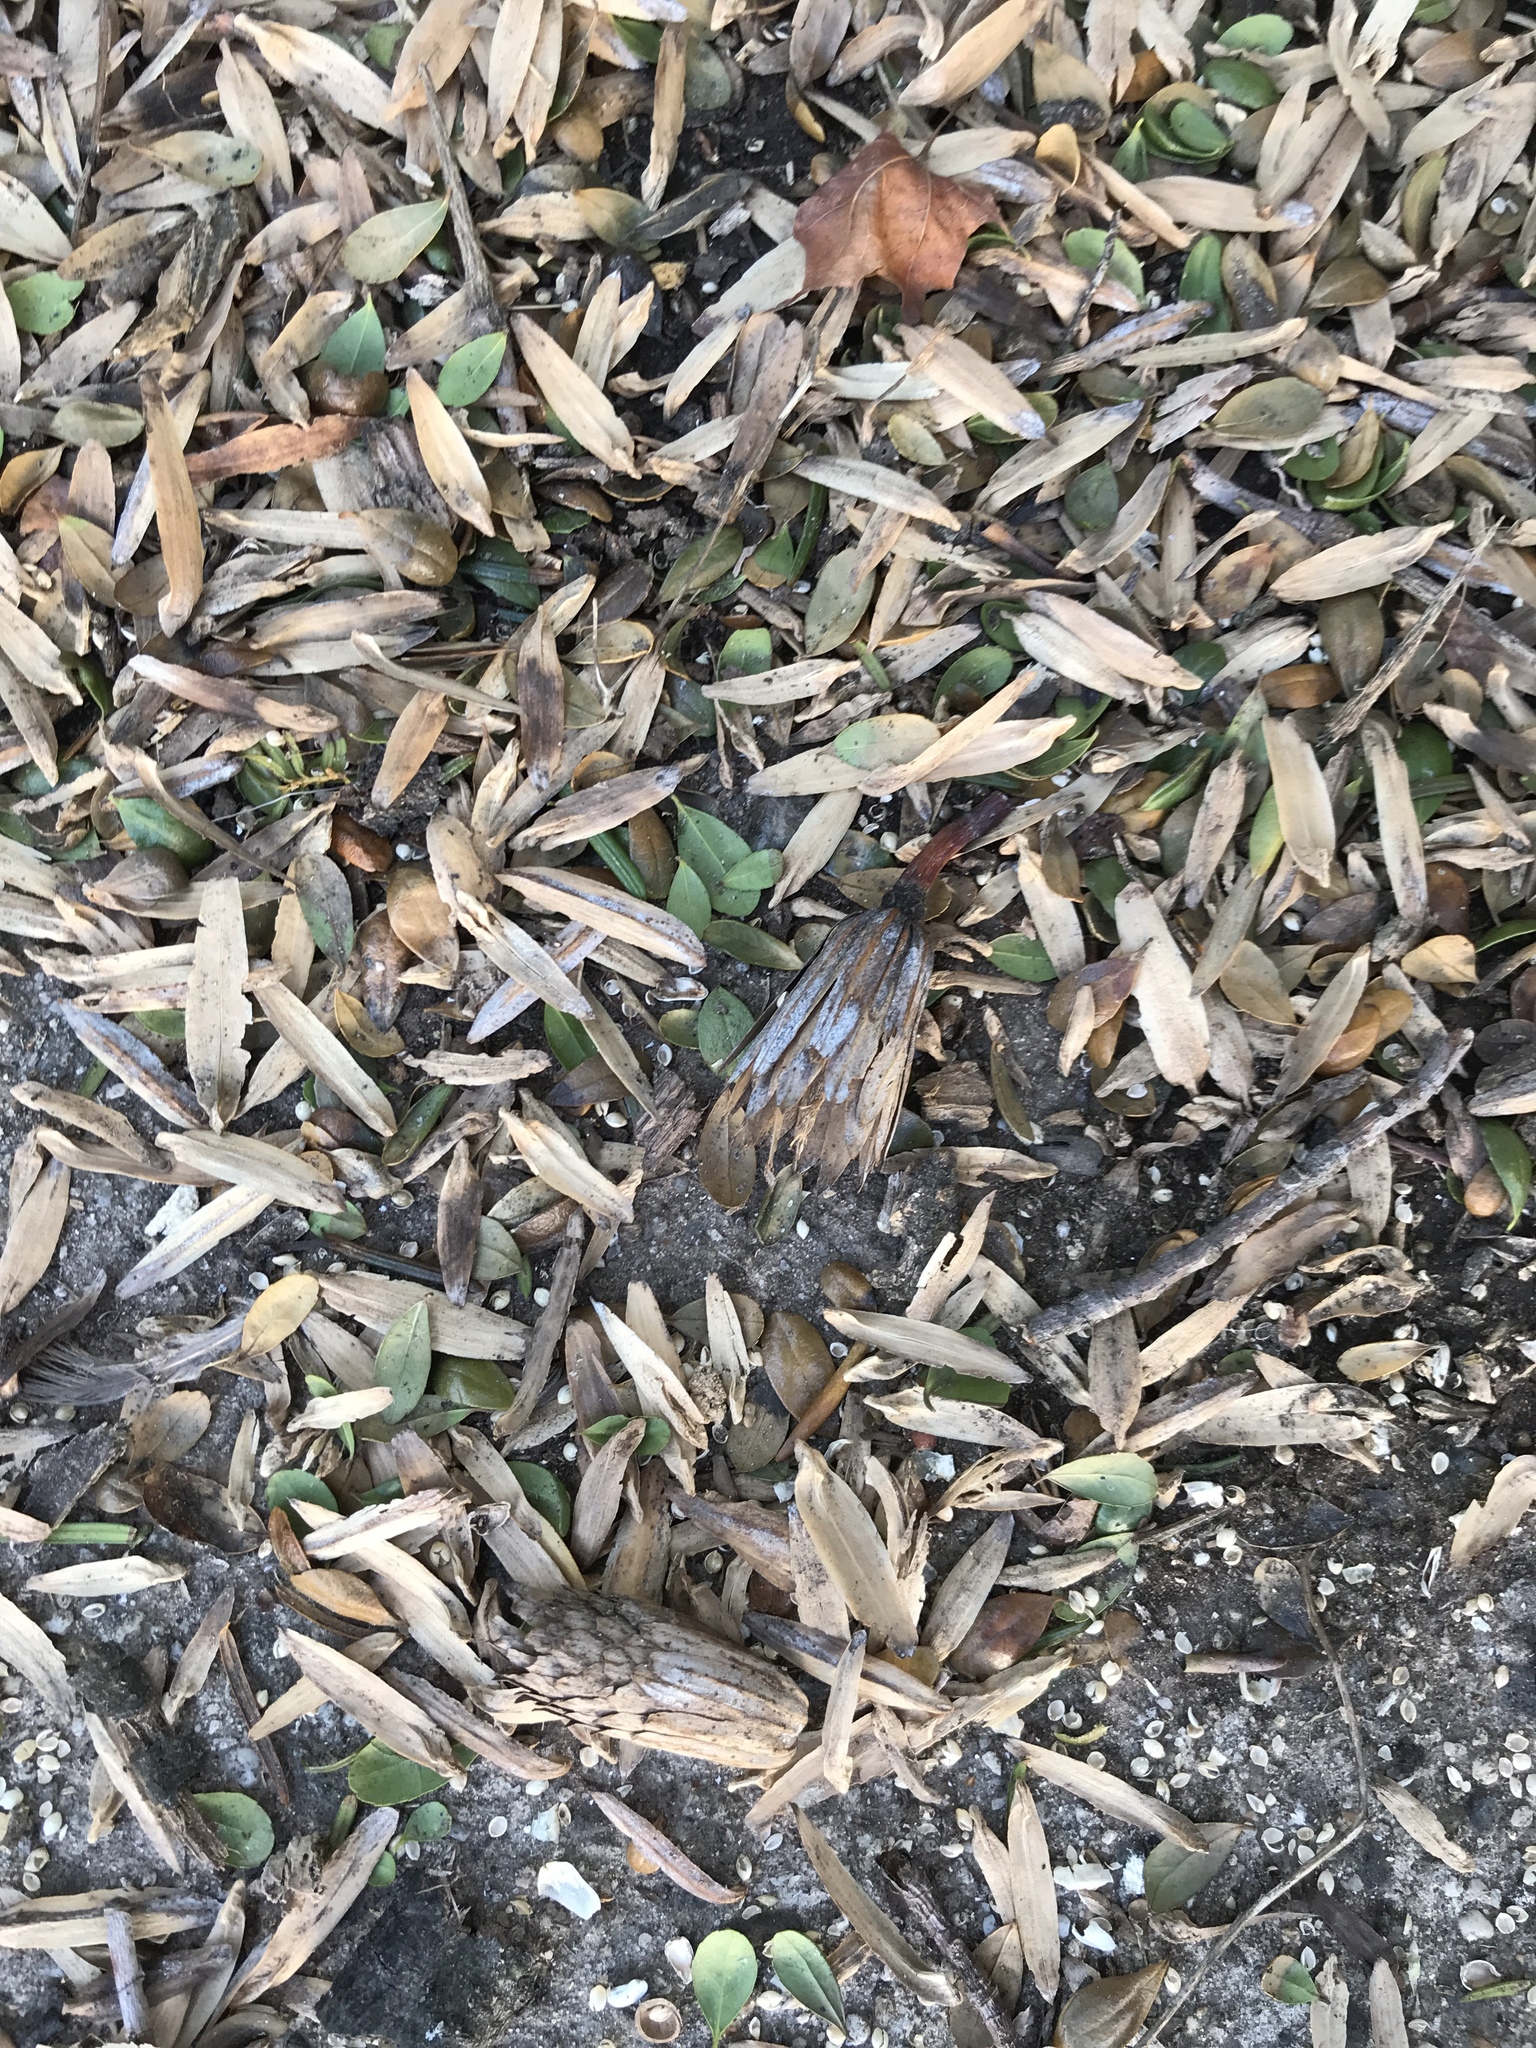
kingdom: Plantae
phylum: Tracheophyta
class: Magnoliopsida
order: Magnoliales
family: Magnoliaceae
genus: Liriodendron
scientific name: Liriodendron tulipifera
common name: Tulip tree
